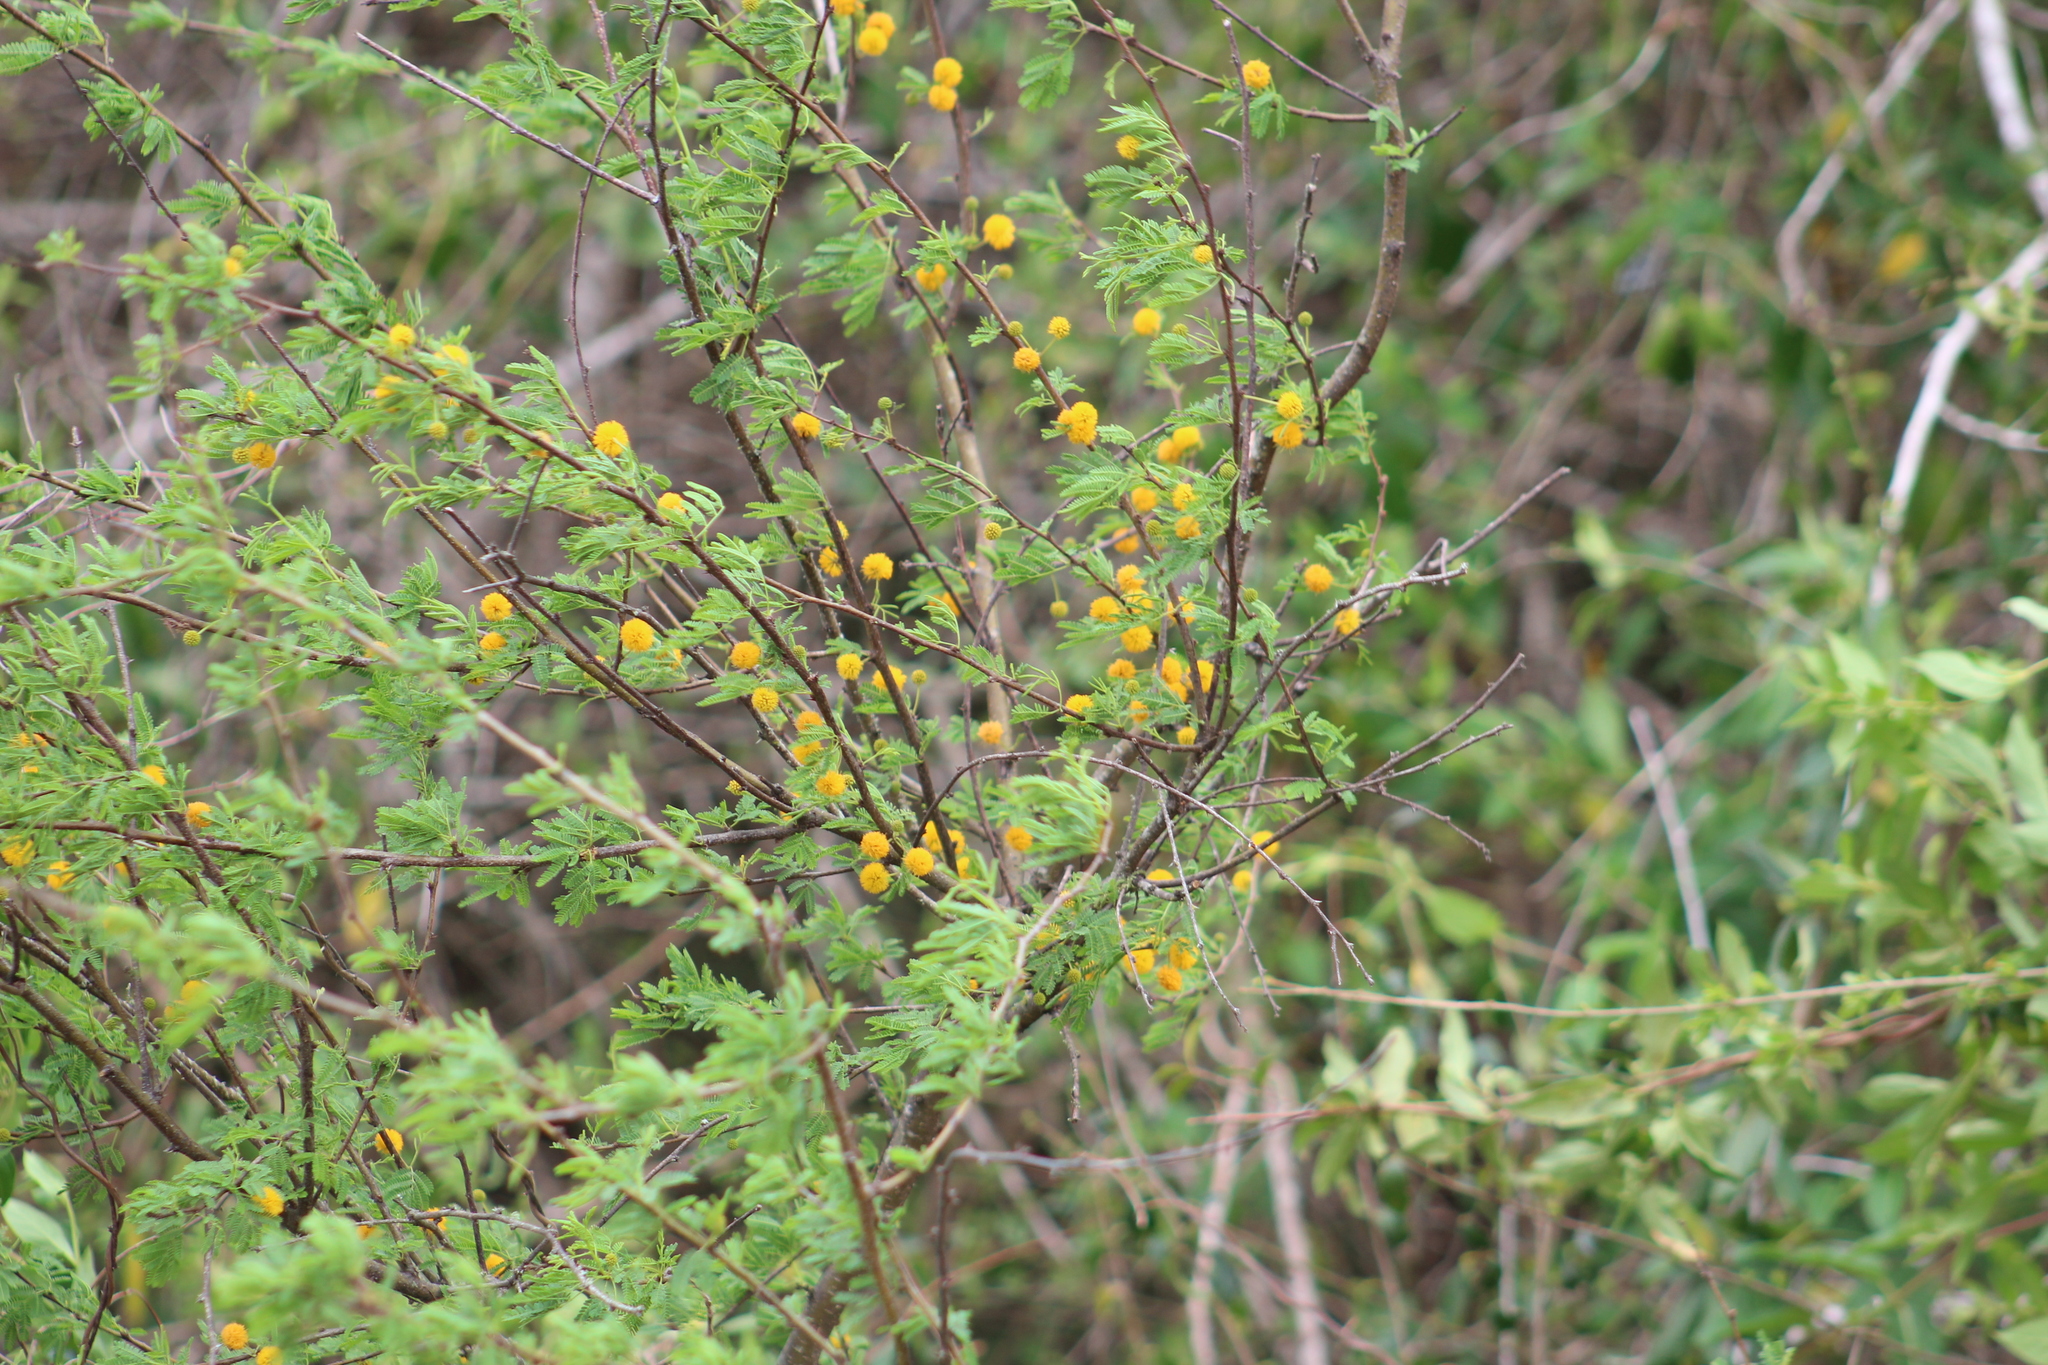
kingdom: Plantae
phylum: Tracheophyta
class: Magnoliopsida
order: Fabales
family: Fabaceae
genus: Vachellia
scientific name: Vachellia farnesiana
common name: Sweet acacia
